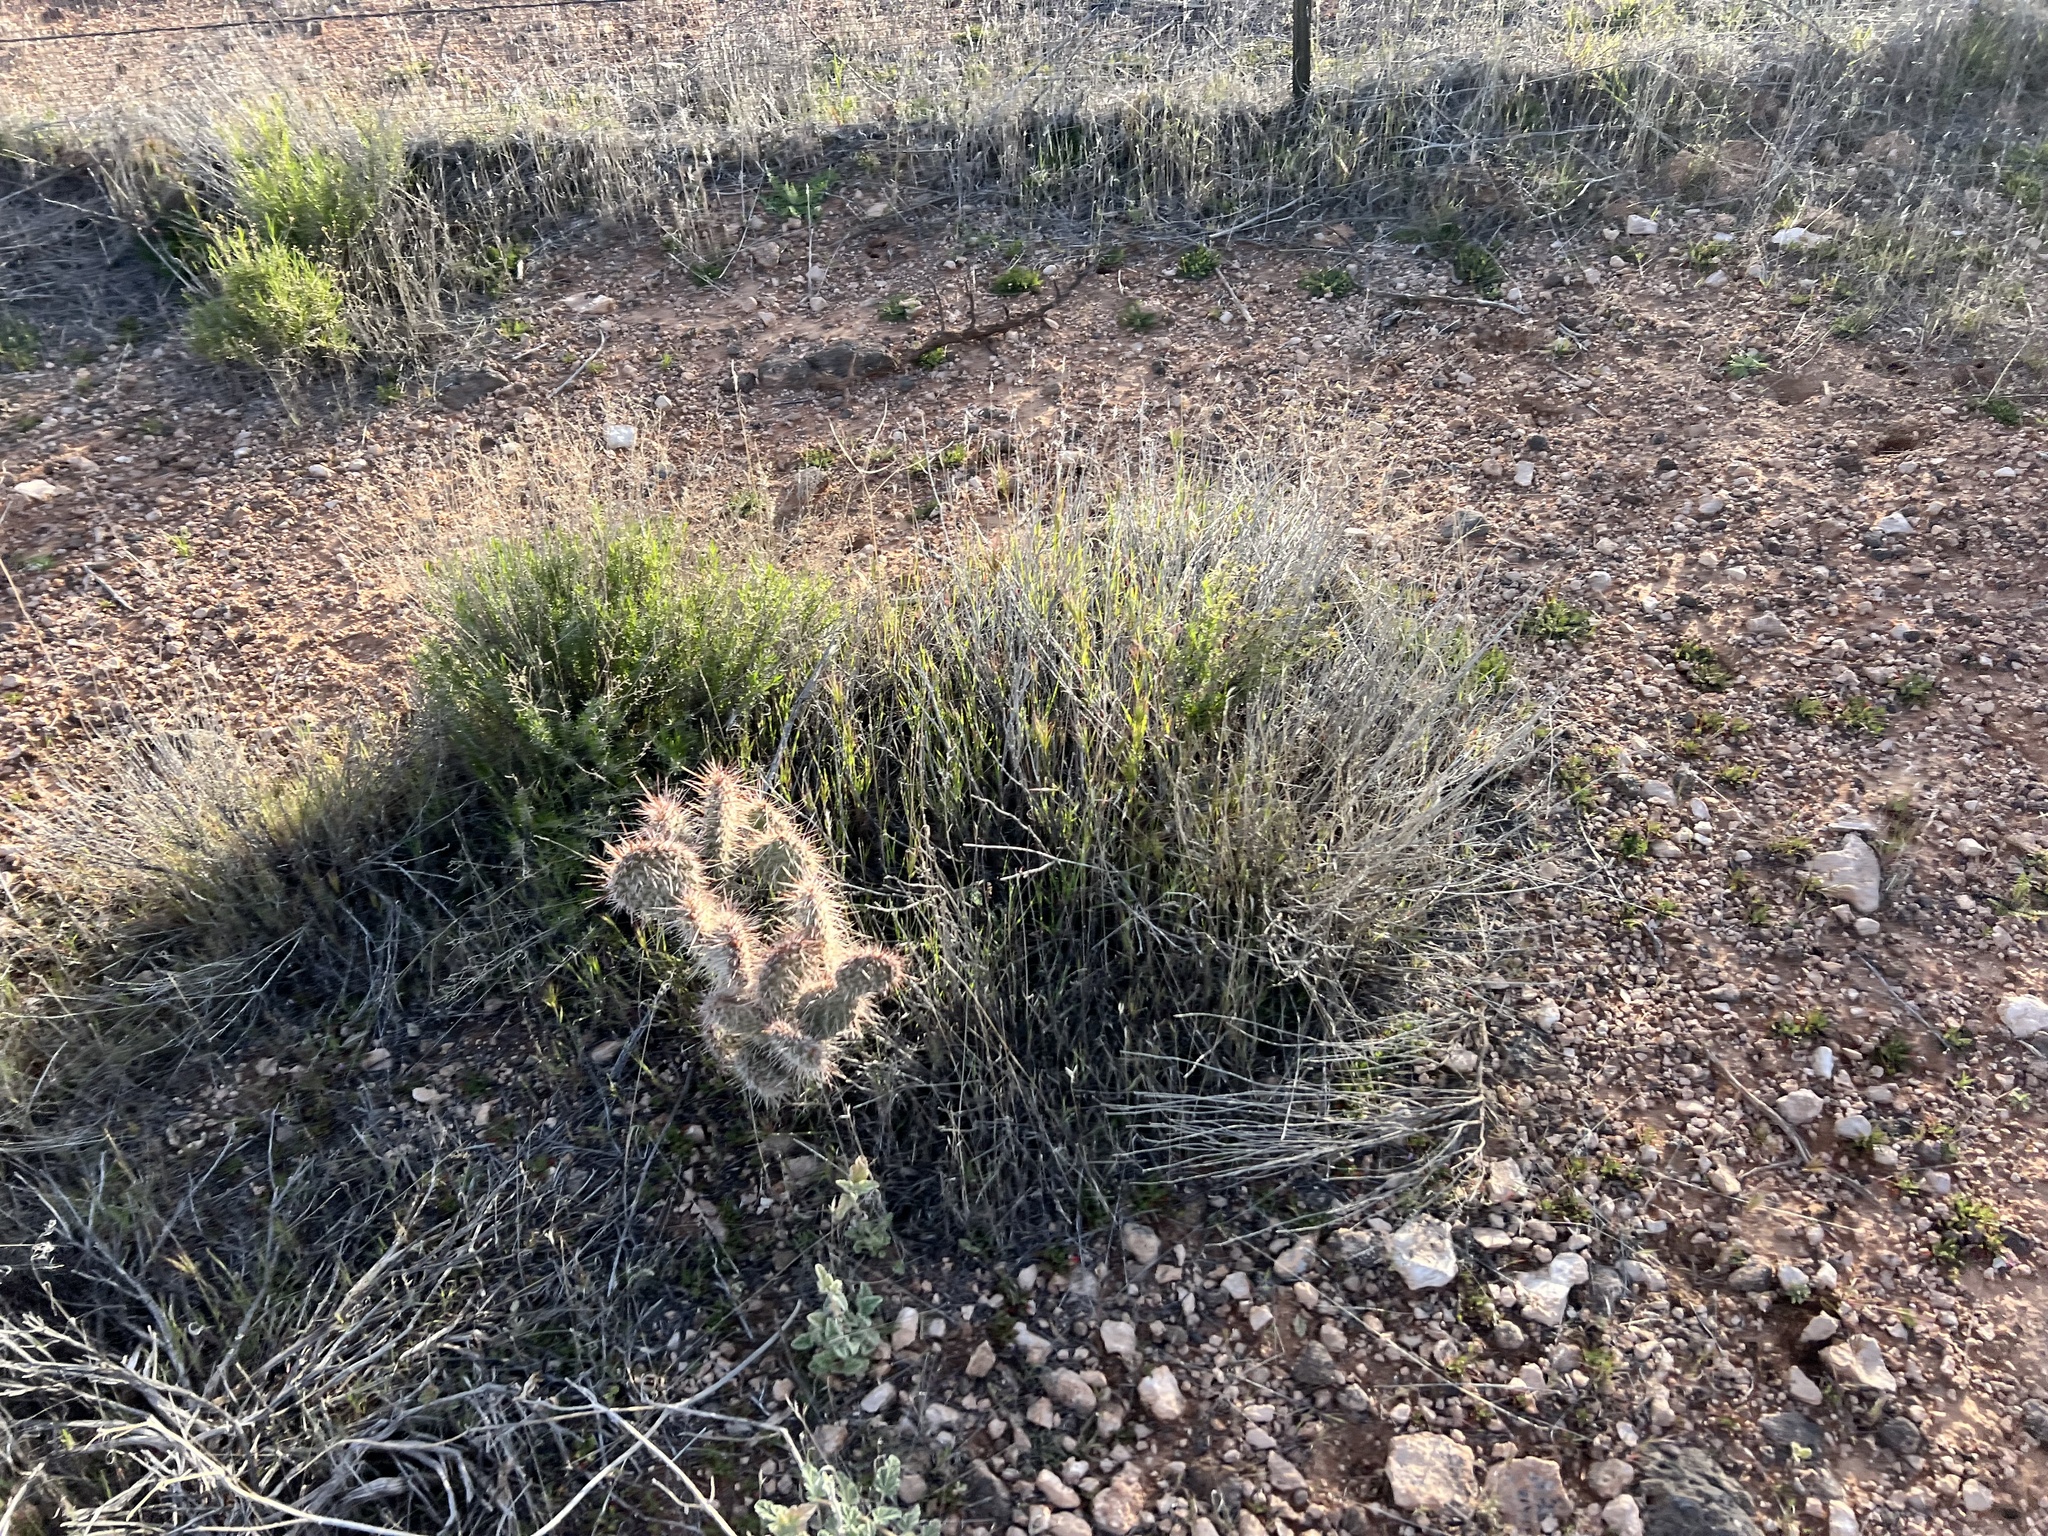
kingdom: Plantae
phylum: Tracheophyta
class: Magnoliopsida
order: Caryophyllales
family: Cactaceae
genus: Opuntia
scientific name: Opuntia polyacantha
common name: Plains prickly-pear
